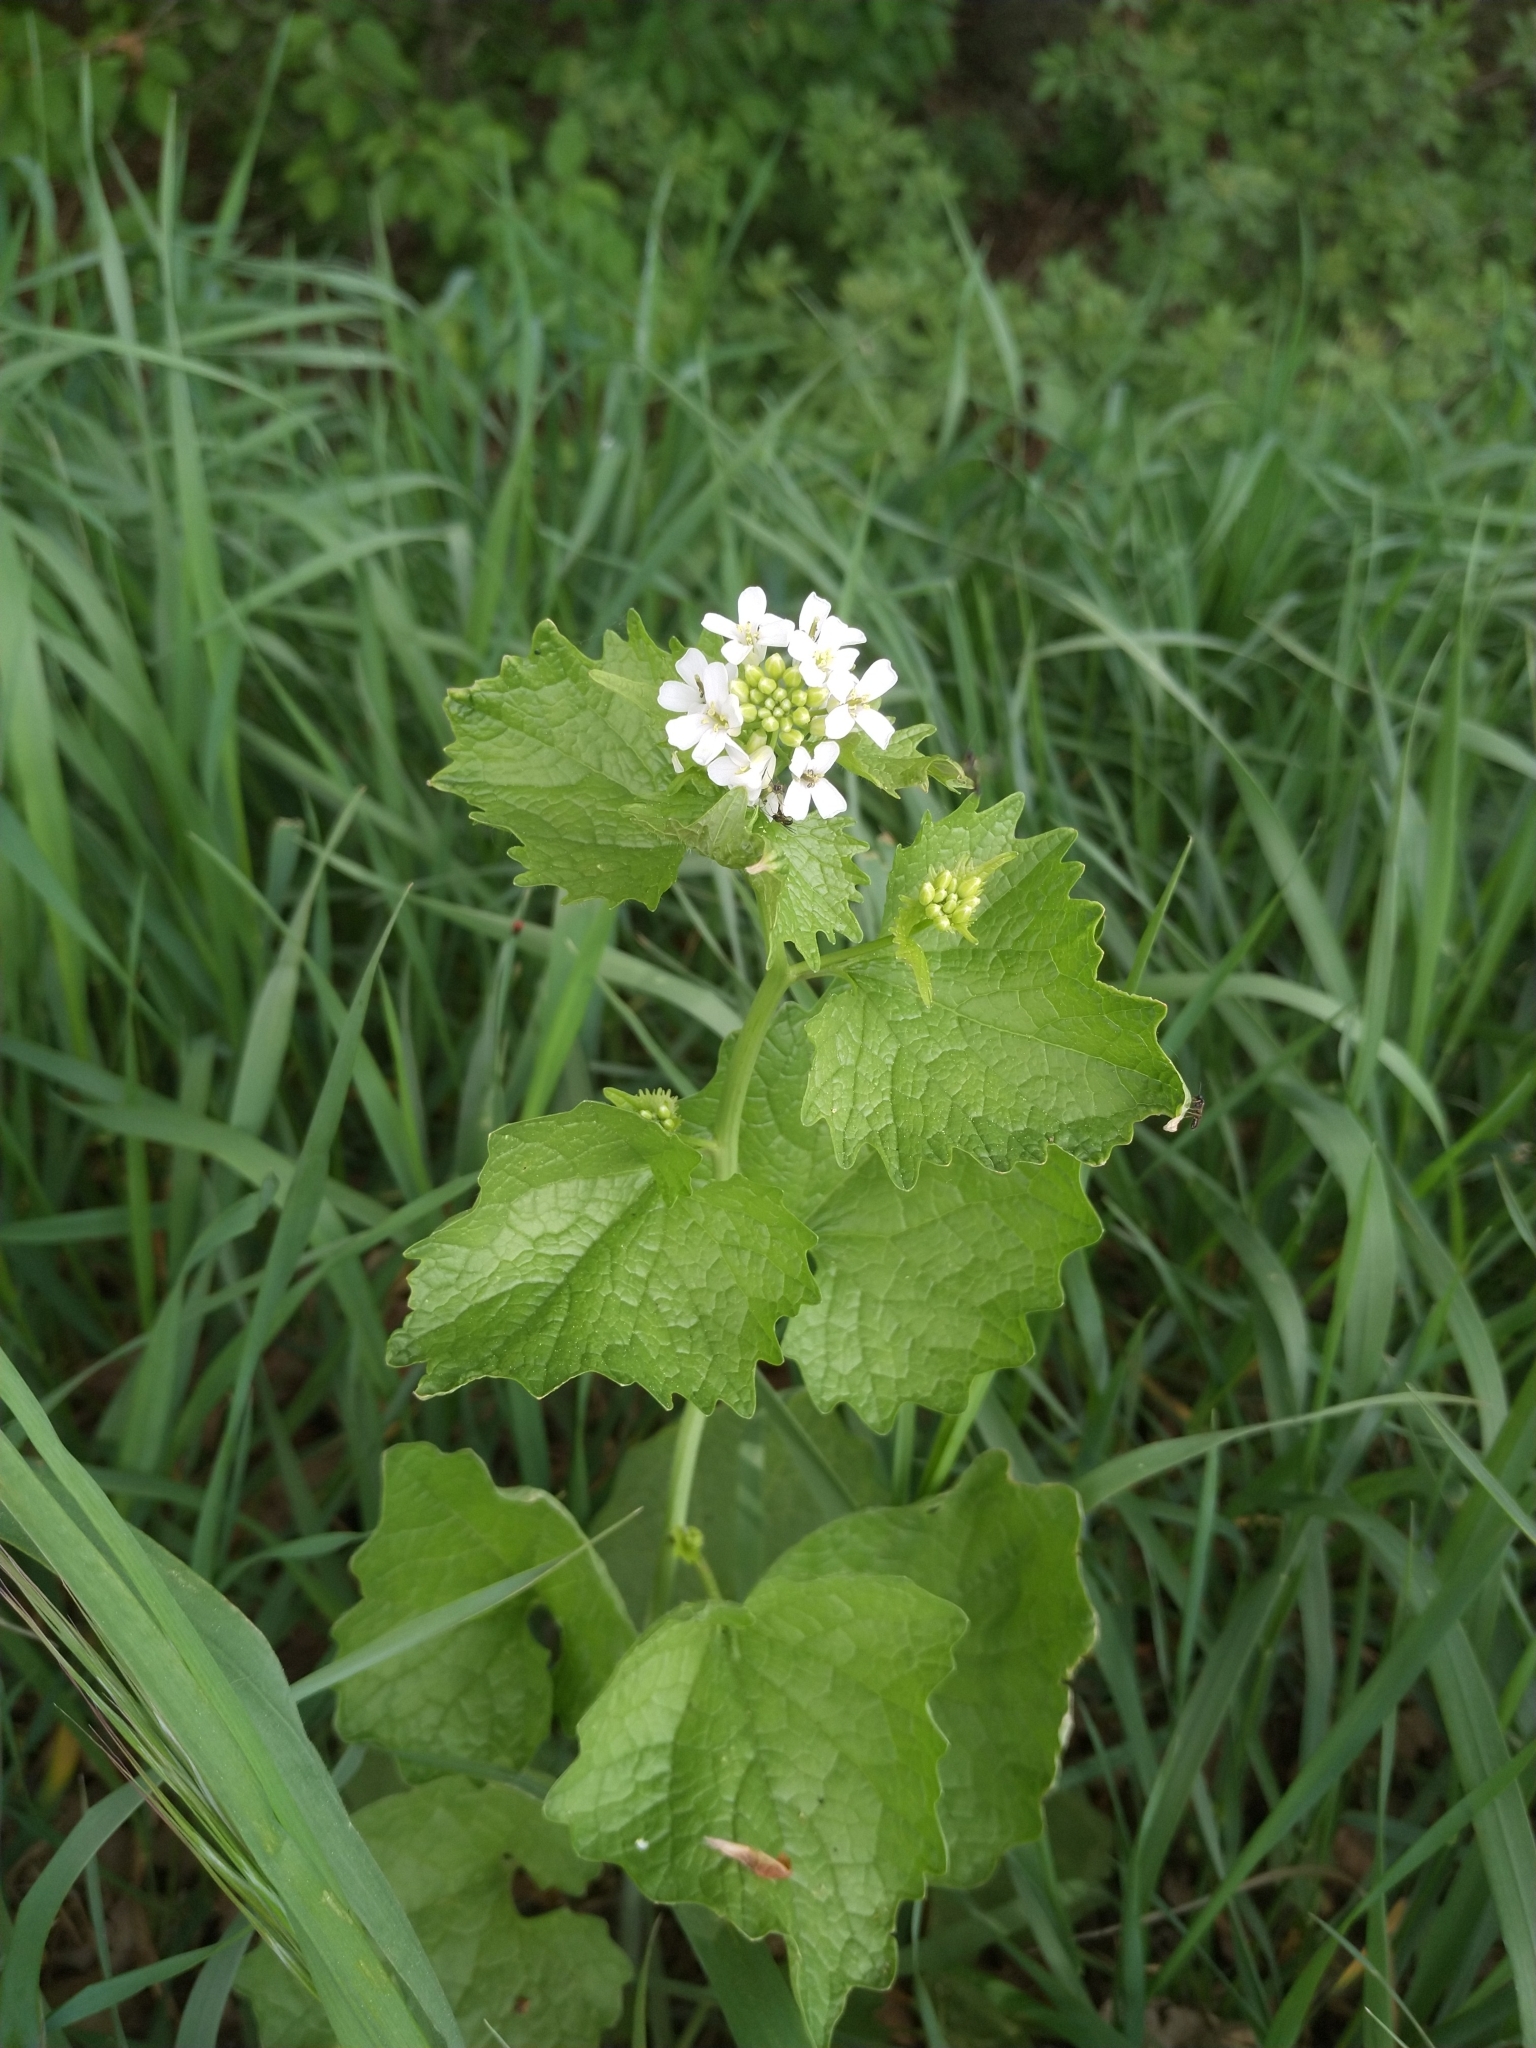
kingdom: Plantae
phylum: Tracheophyta
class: Magnoliopsida
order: Brassicales
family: Brassicaceae
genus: Alliaria
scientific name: Alliaria petiolata
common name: Garlic mustard
